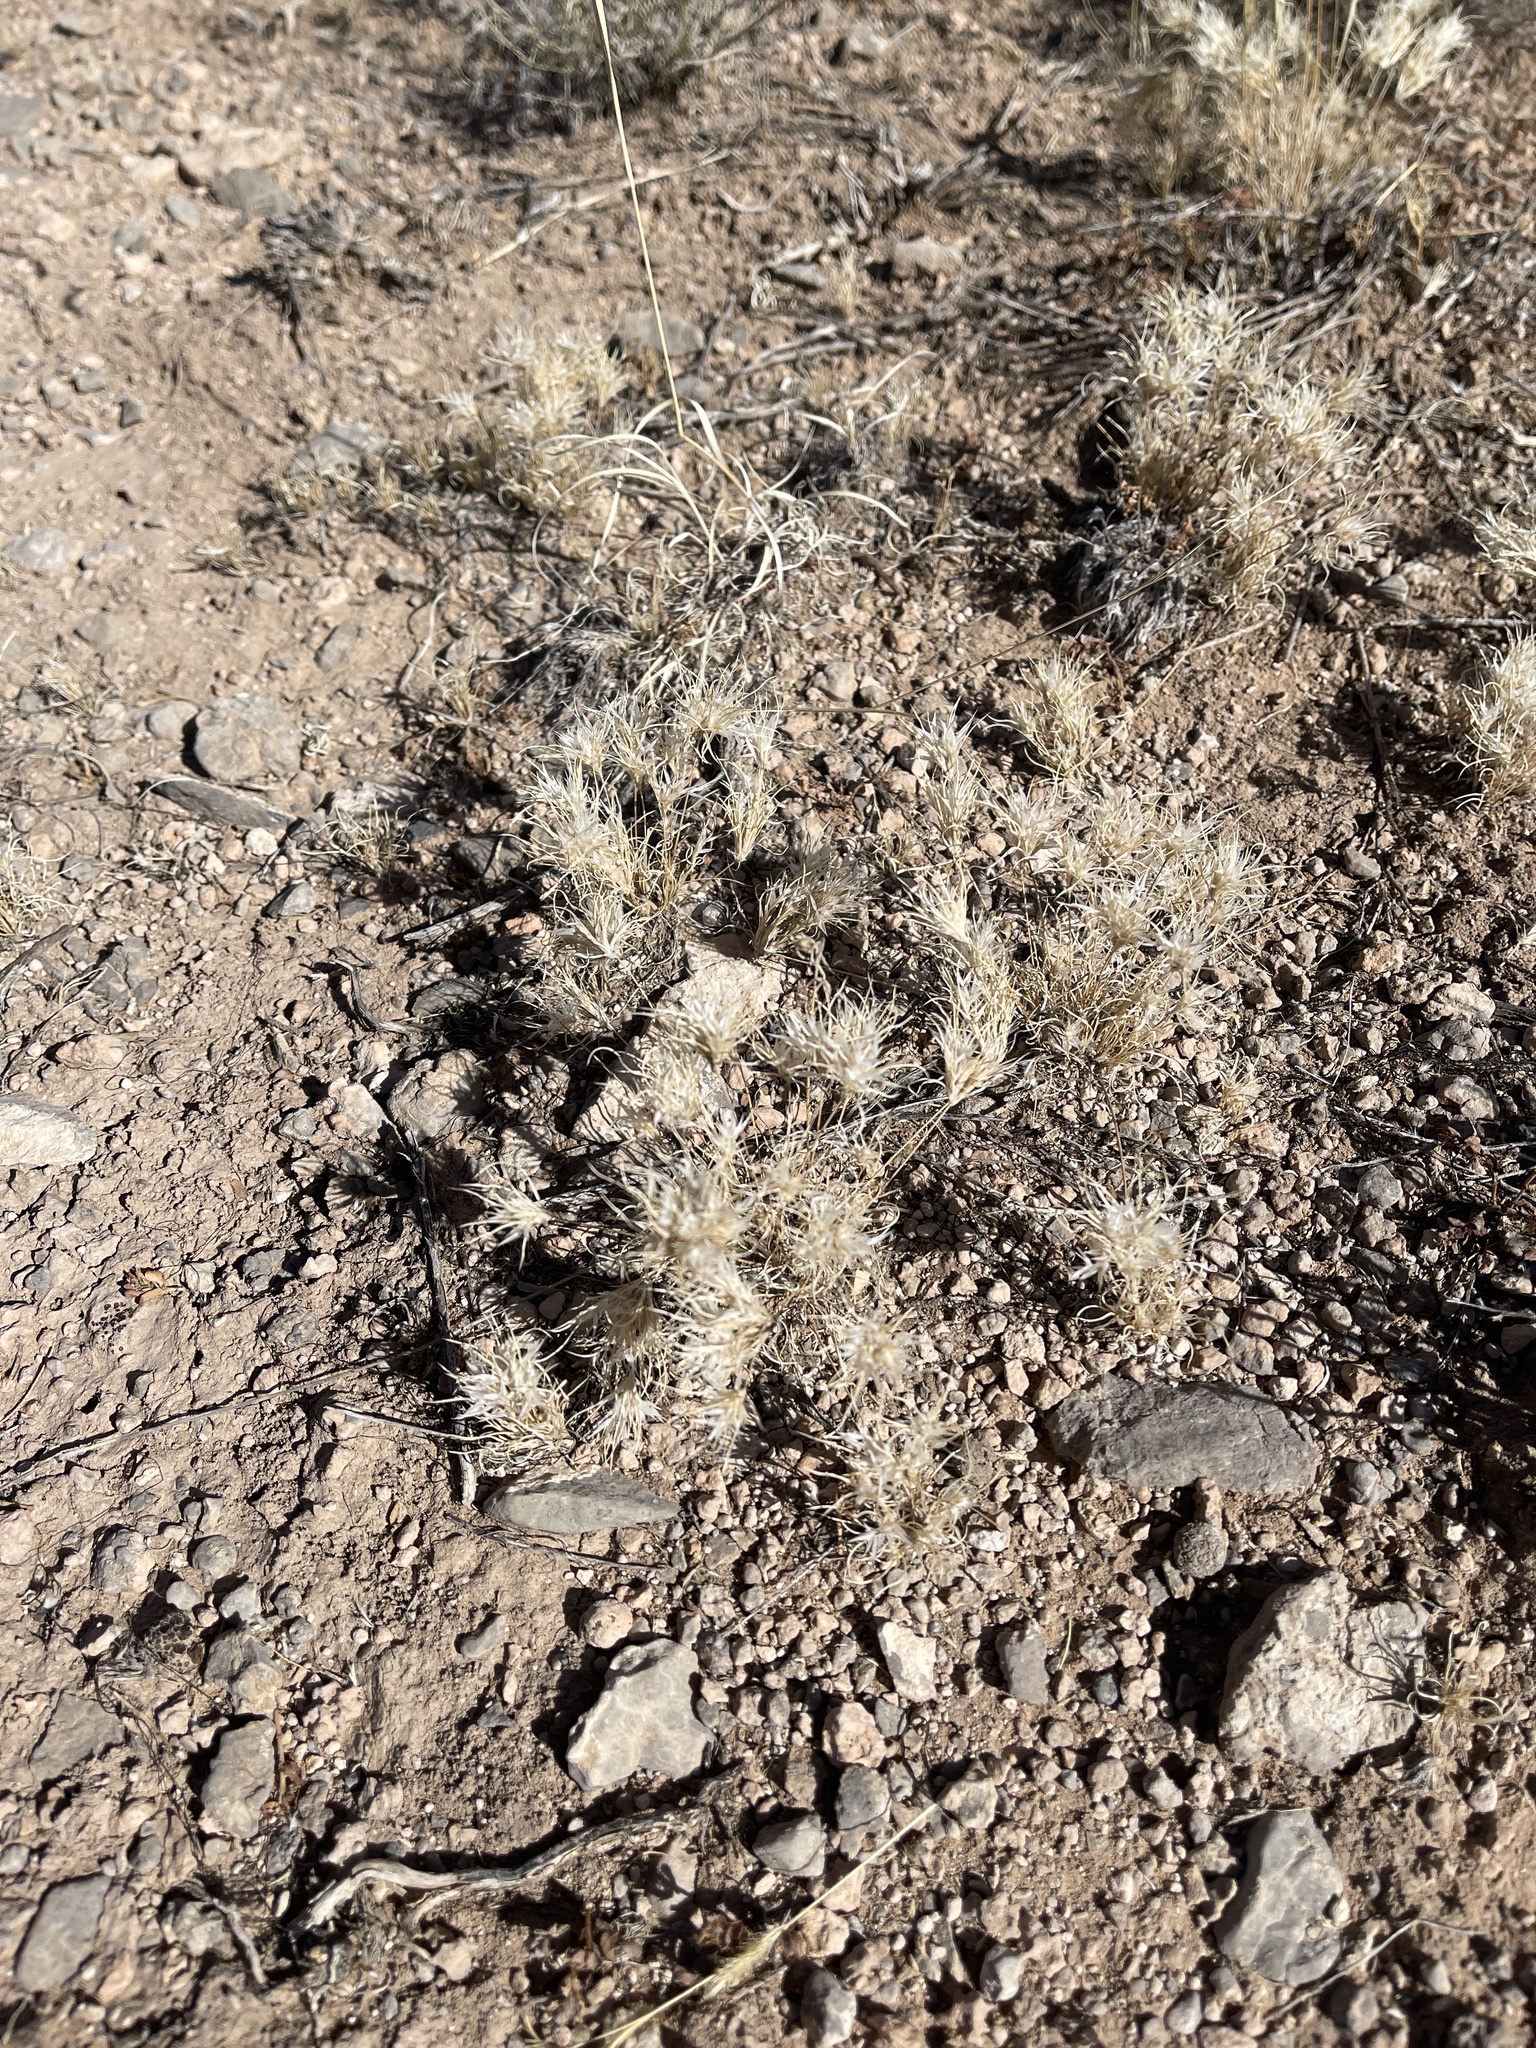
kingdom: Plantae
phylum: Tracheophyta
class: Liliopsida
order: Poales
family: Poaceae
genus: Dasyochloa
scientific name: Dasyochloa pulchella
